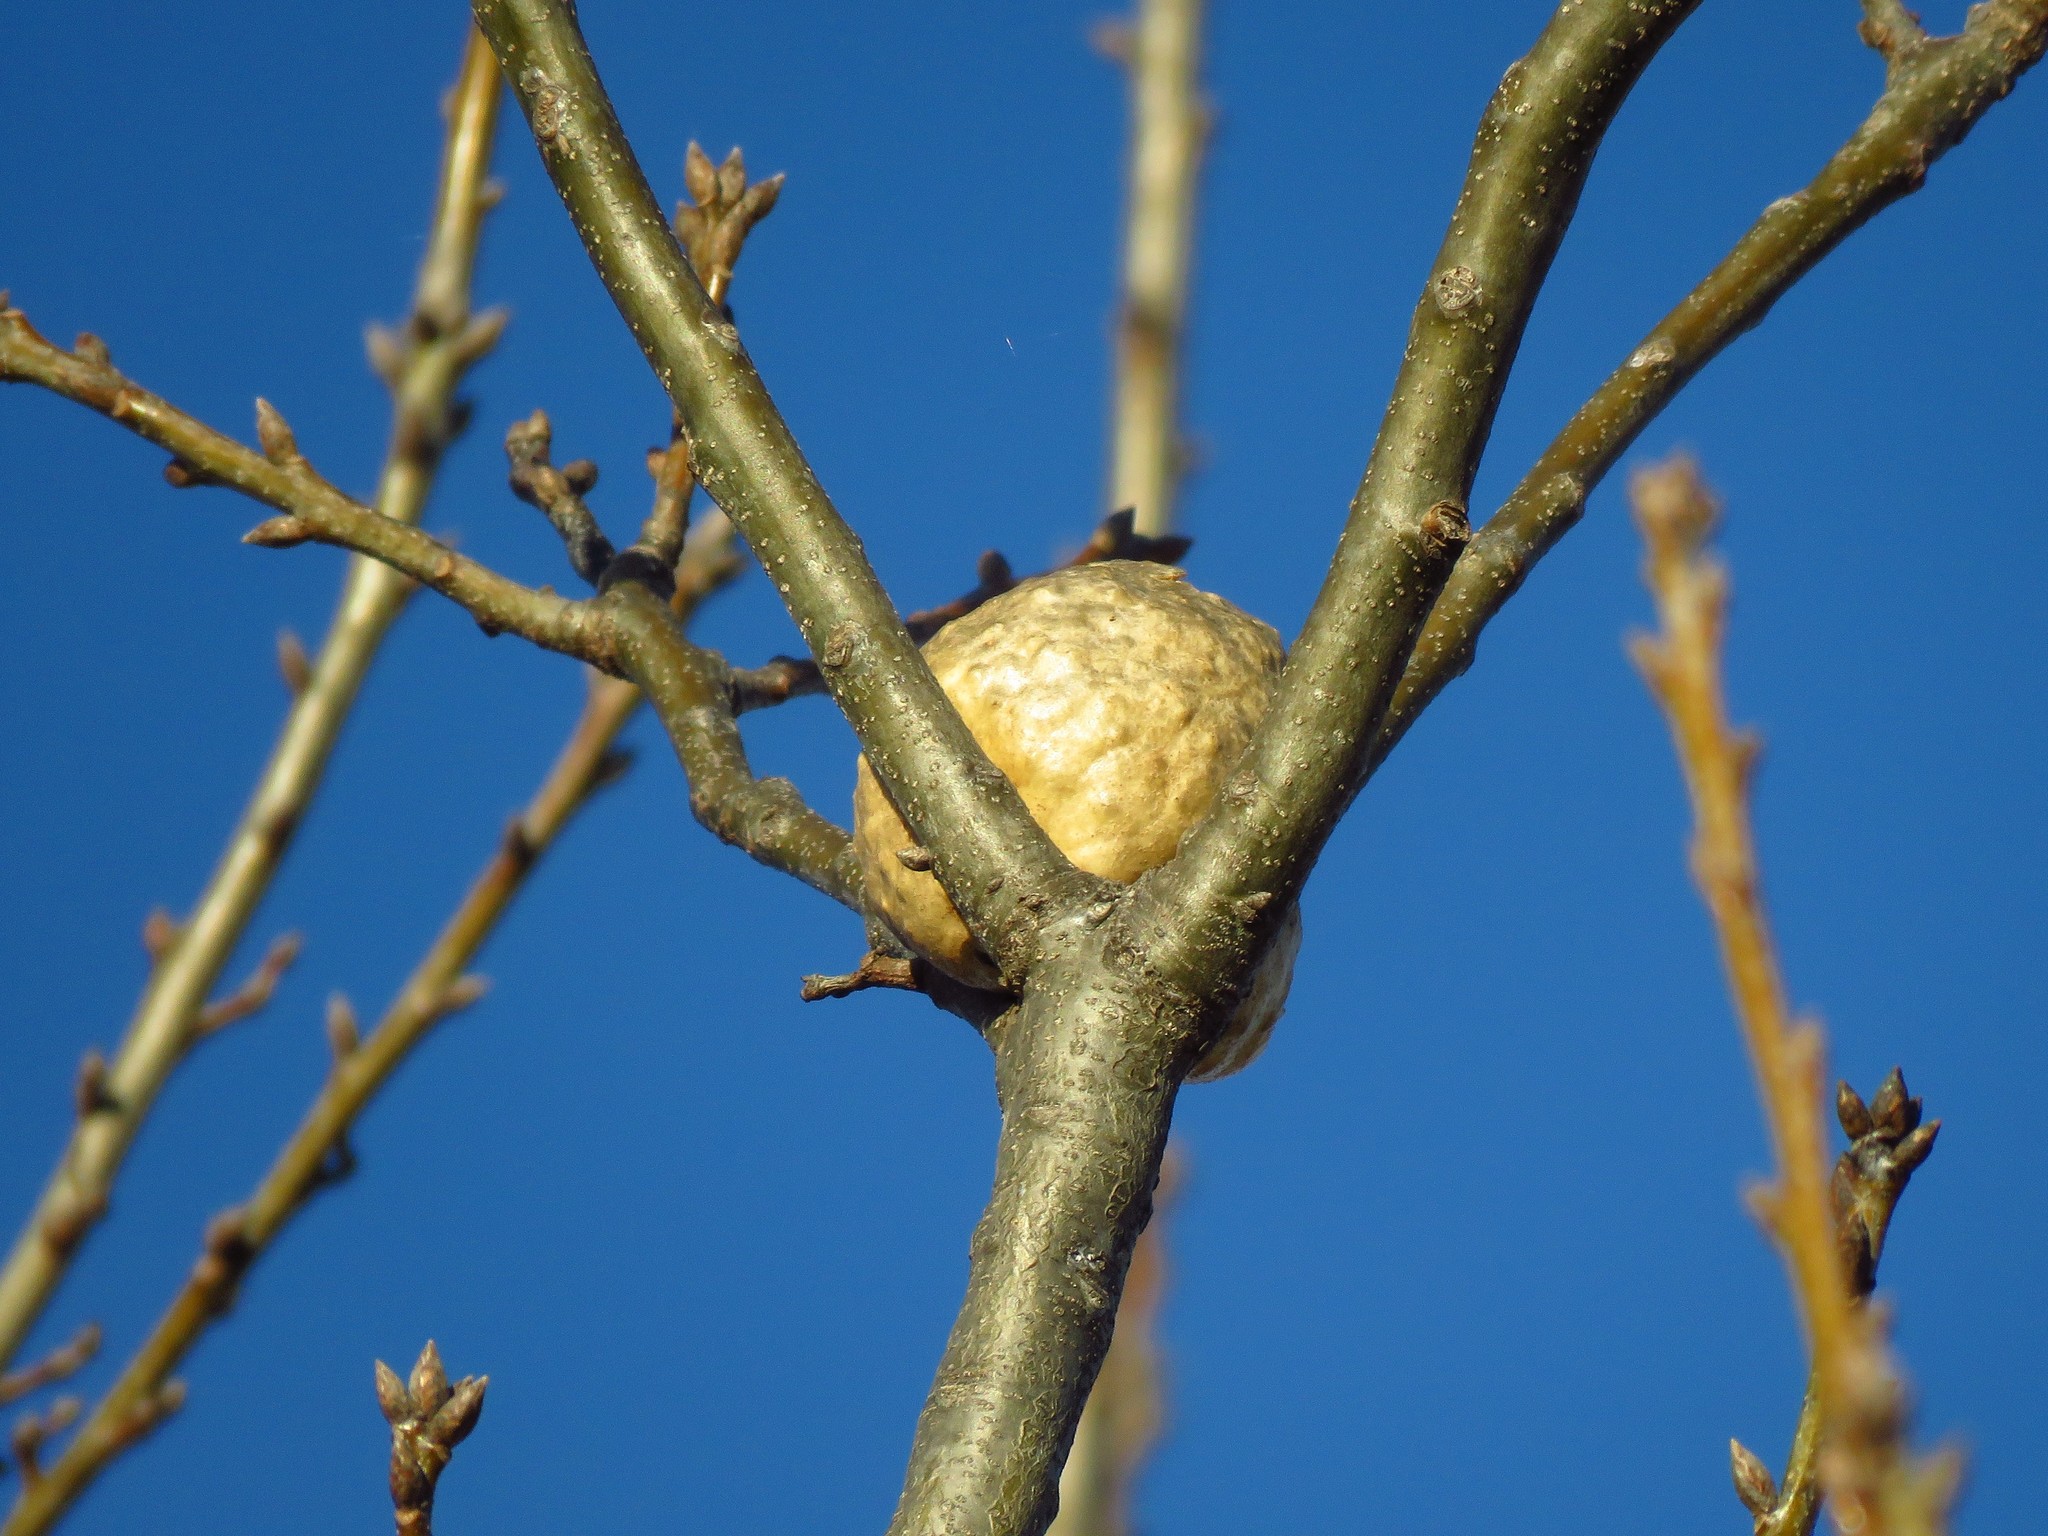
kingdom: Animalia
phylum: Arthropoda
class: Insecta
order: Hymenoptera
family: Cynipidae
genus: Amphibolips
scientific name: Amphibolips
